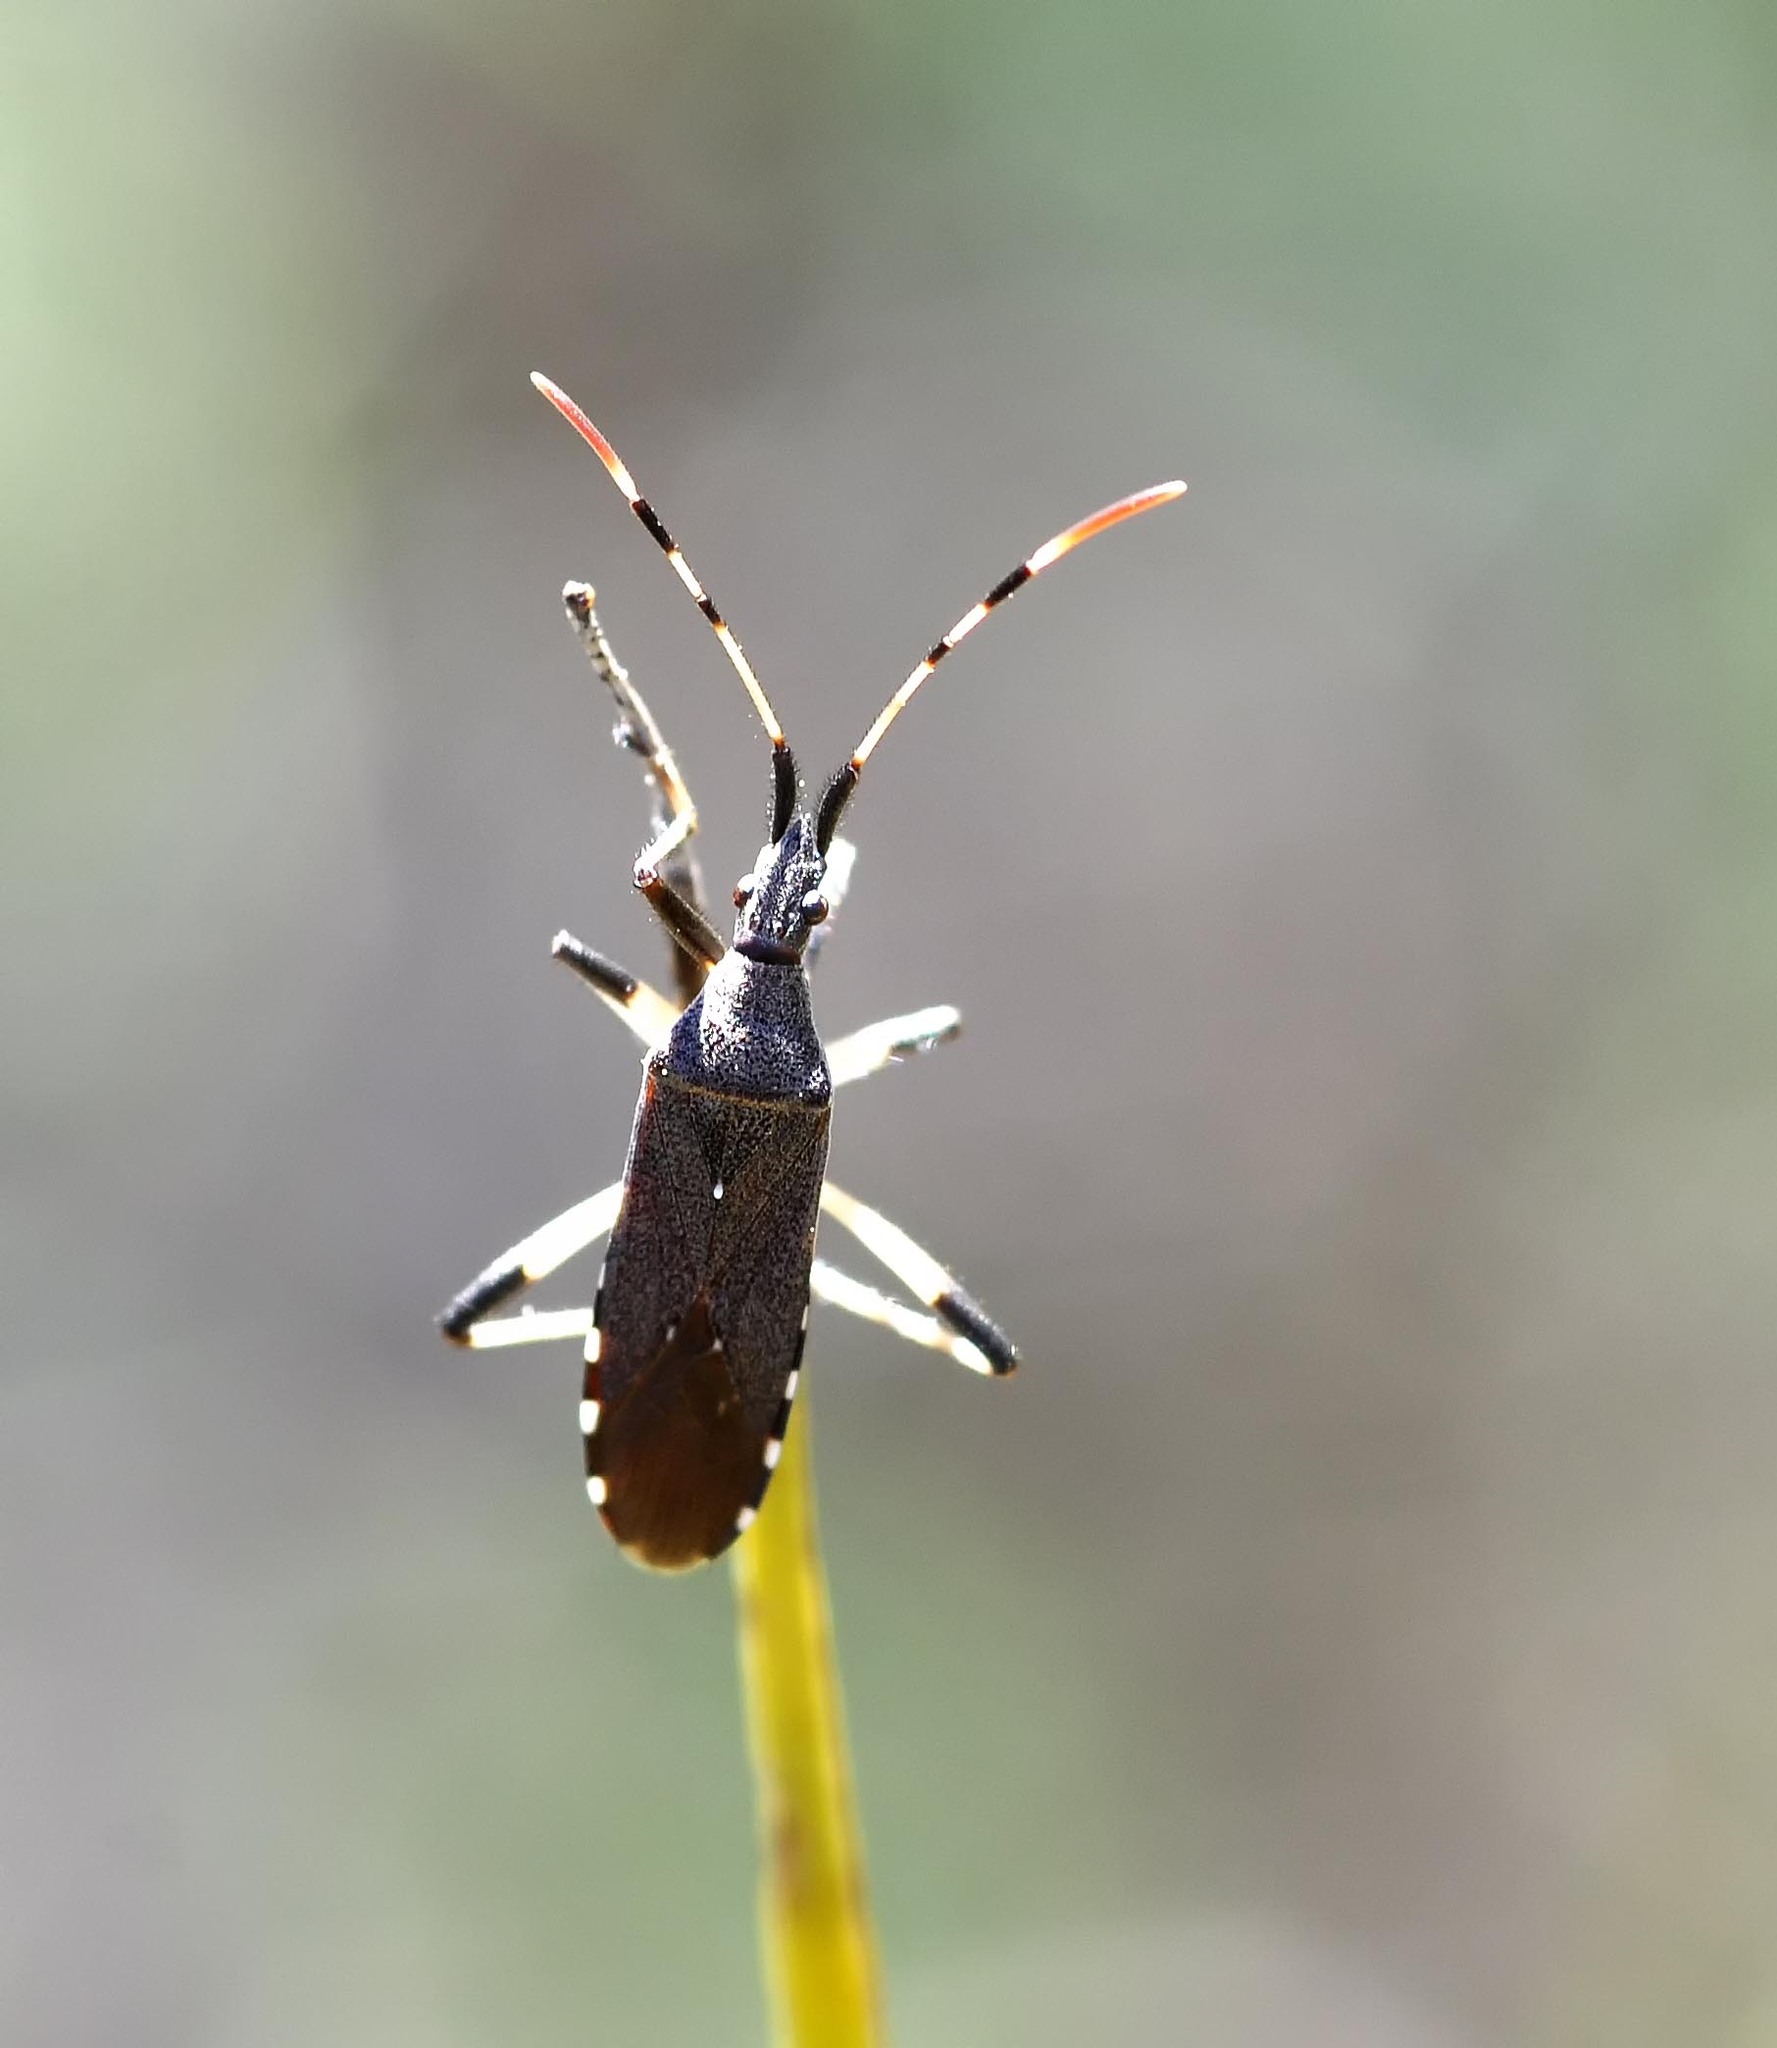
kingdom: Animalia
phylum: Arthropoda
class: Insecta
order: Hemiptera
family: Stenocephalidae
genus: Dicranocephalus
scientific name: Dicranocephalus albipes
